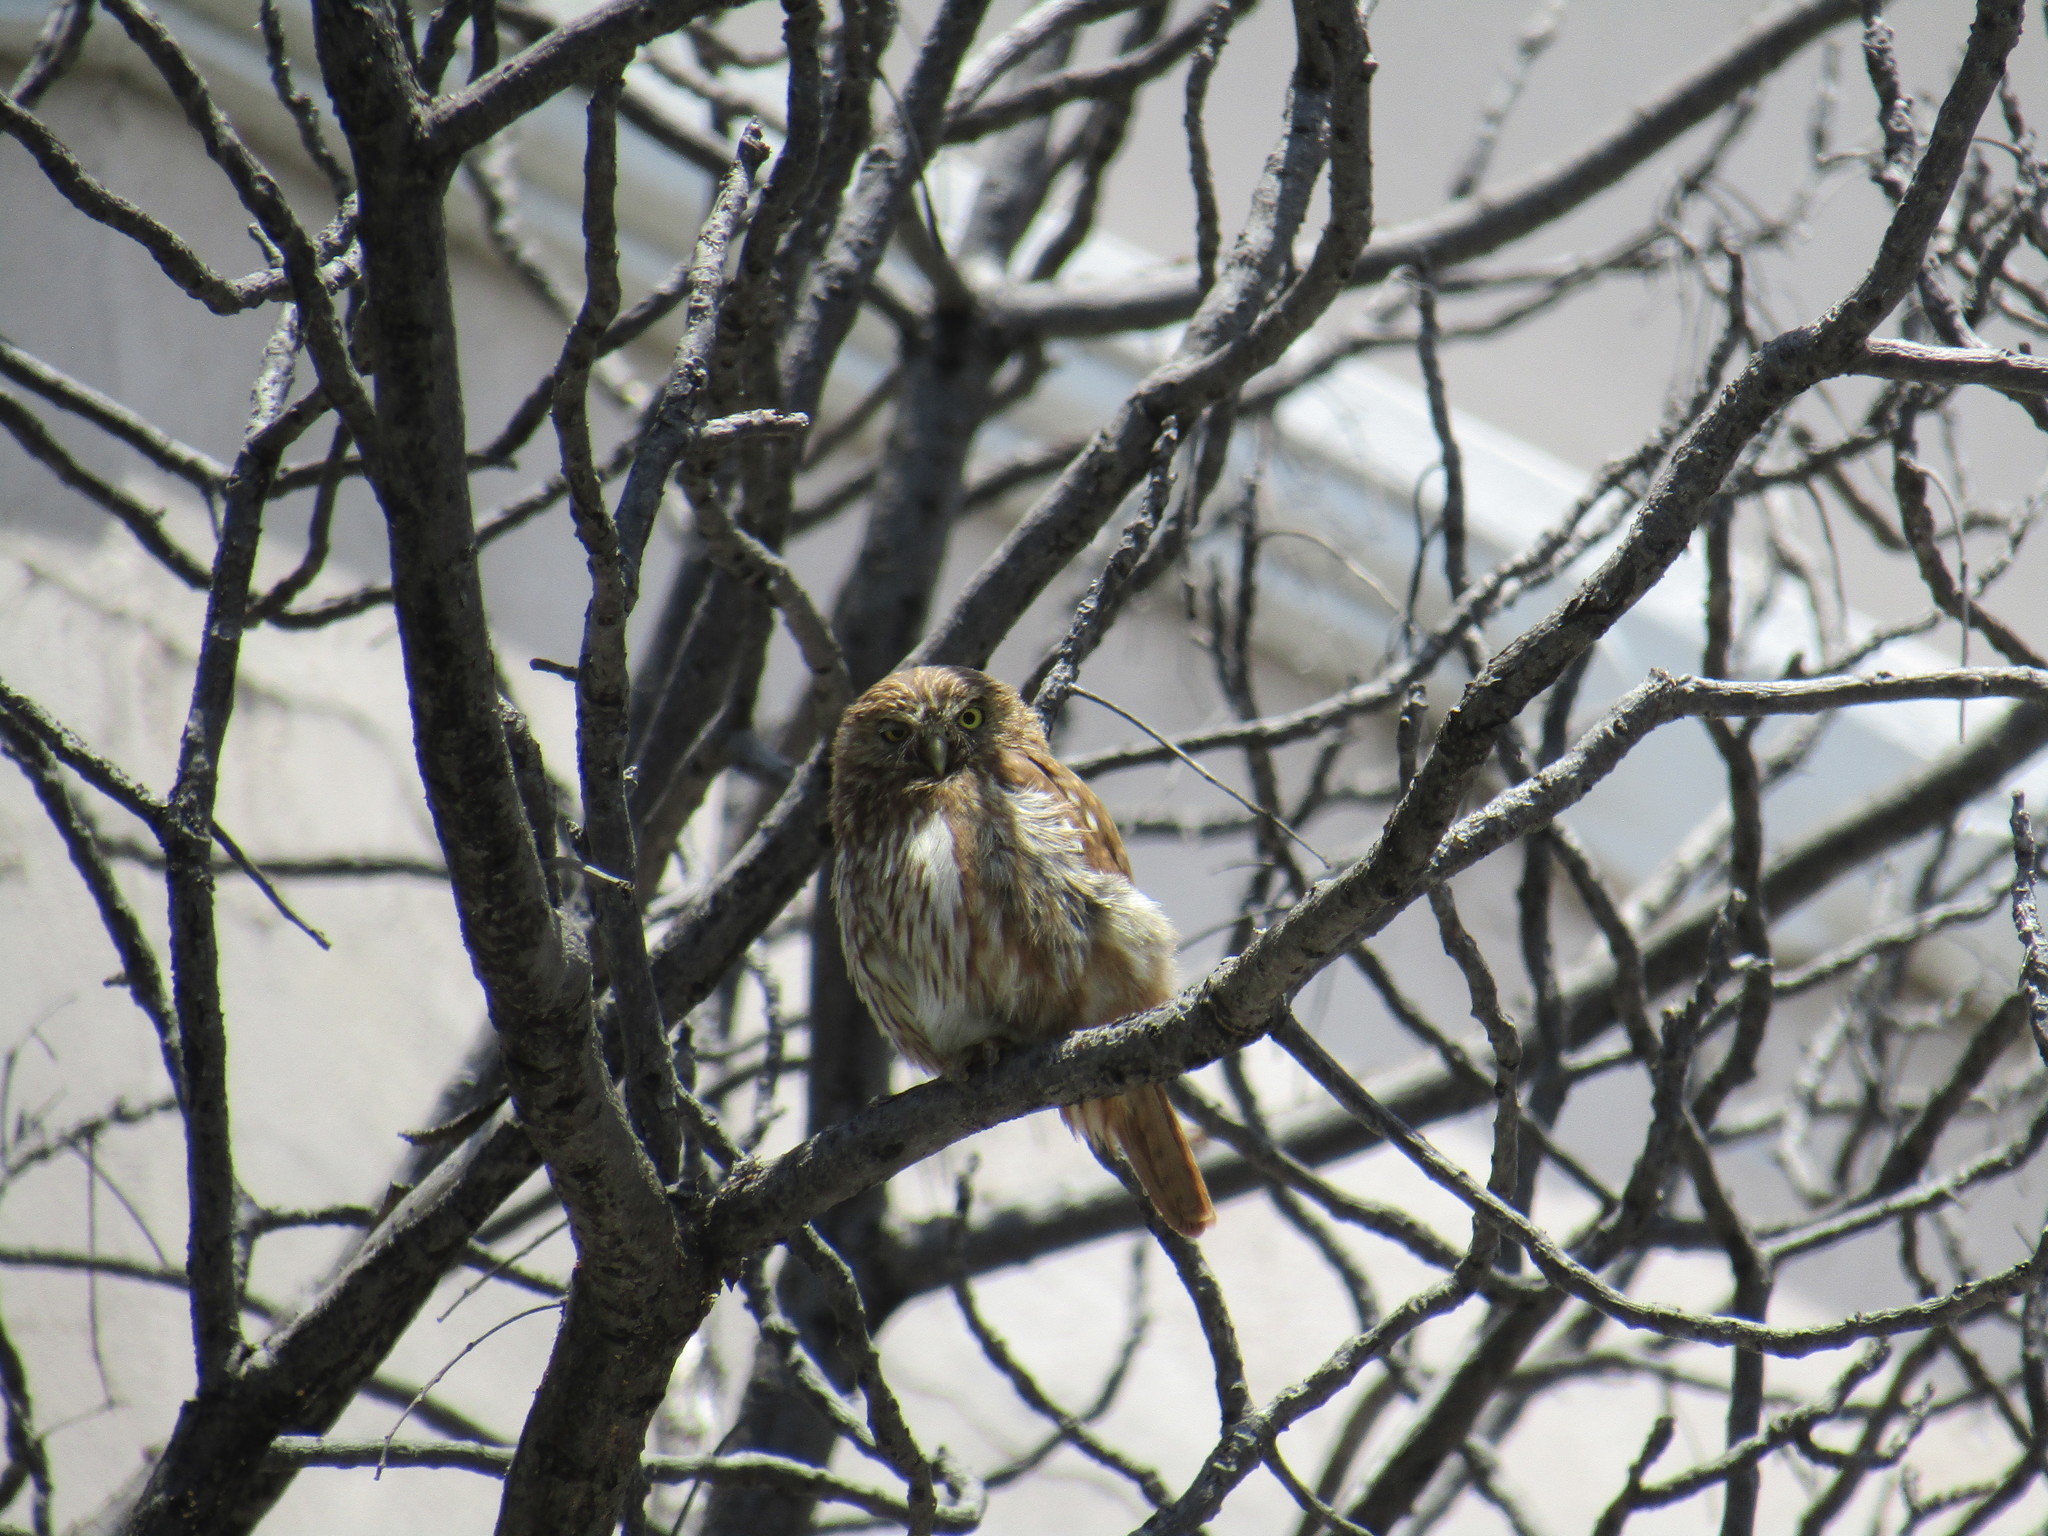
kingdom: Animalia
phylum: Chordata
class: Aves
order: Strigiformes
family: Strigidae
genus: Glaucidium
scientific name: Glaucidium brasilianum
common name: Ferruginous pygmy-owl
